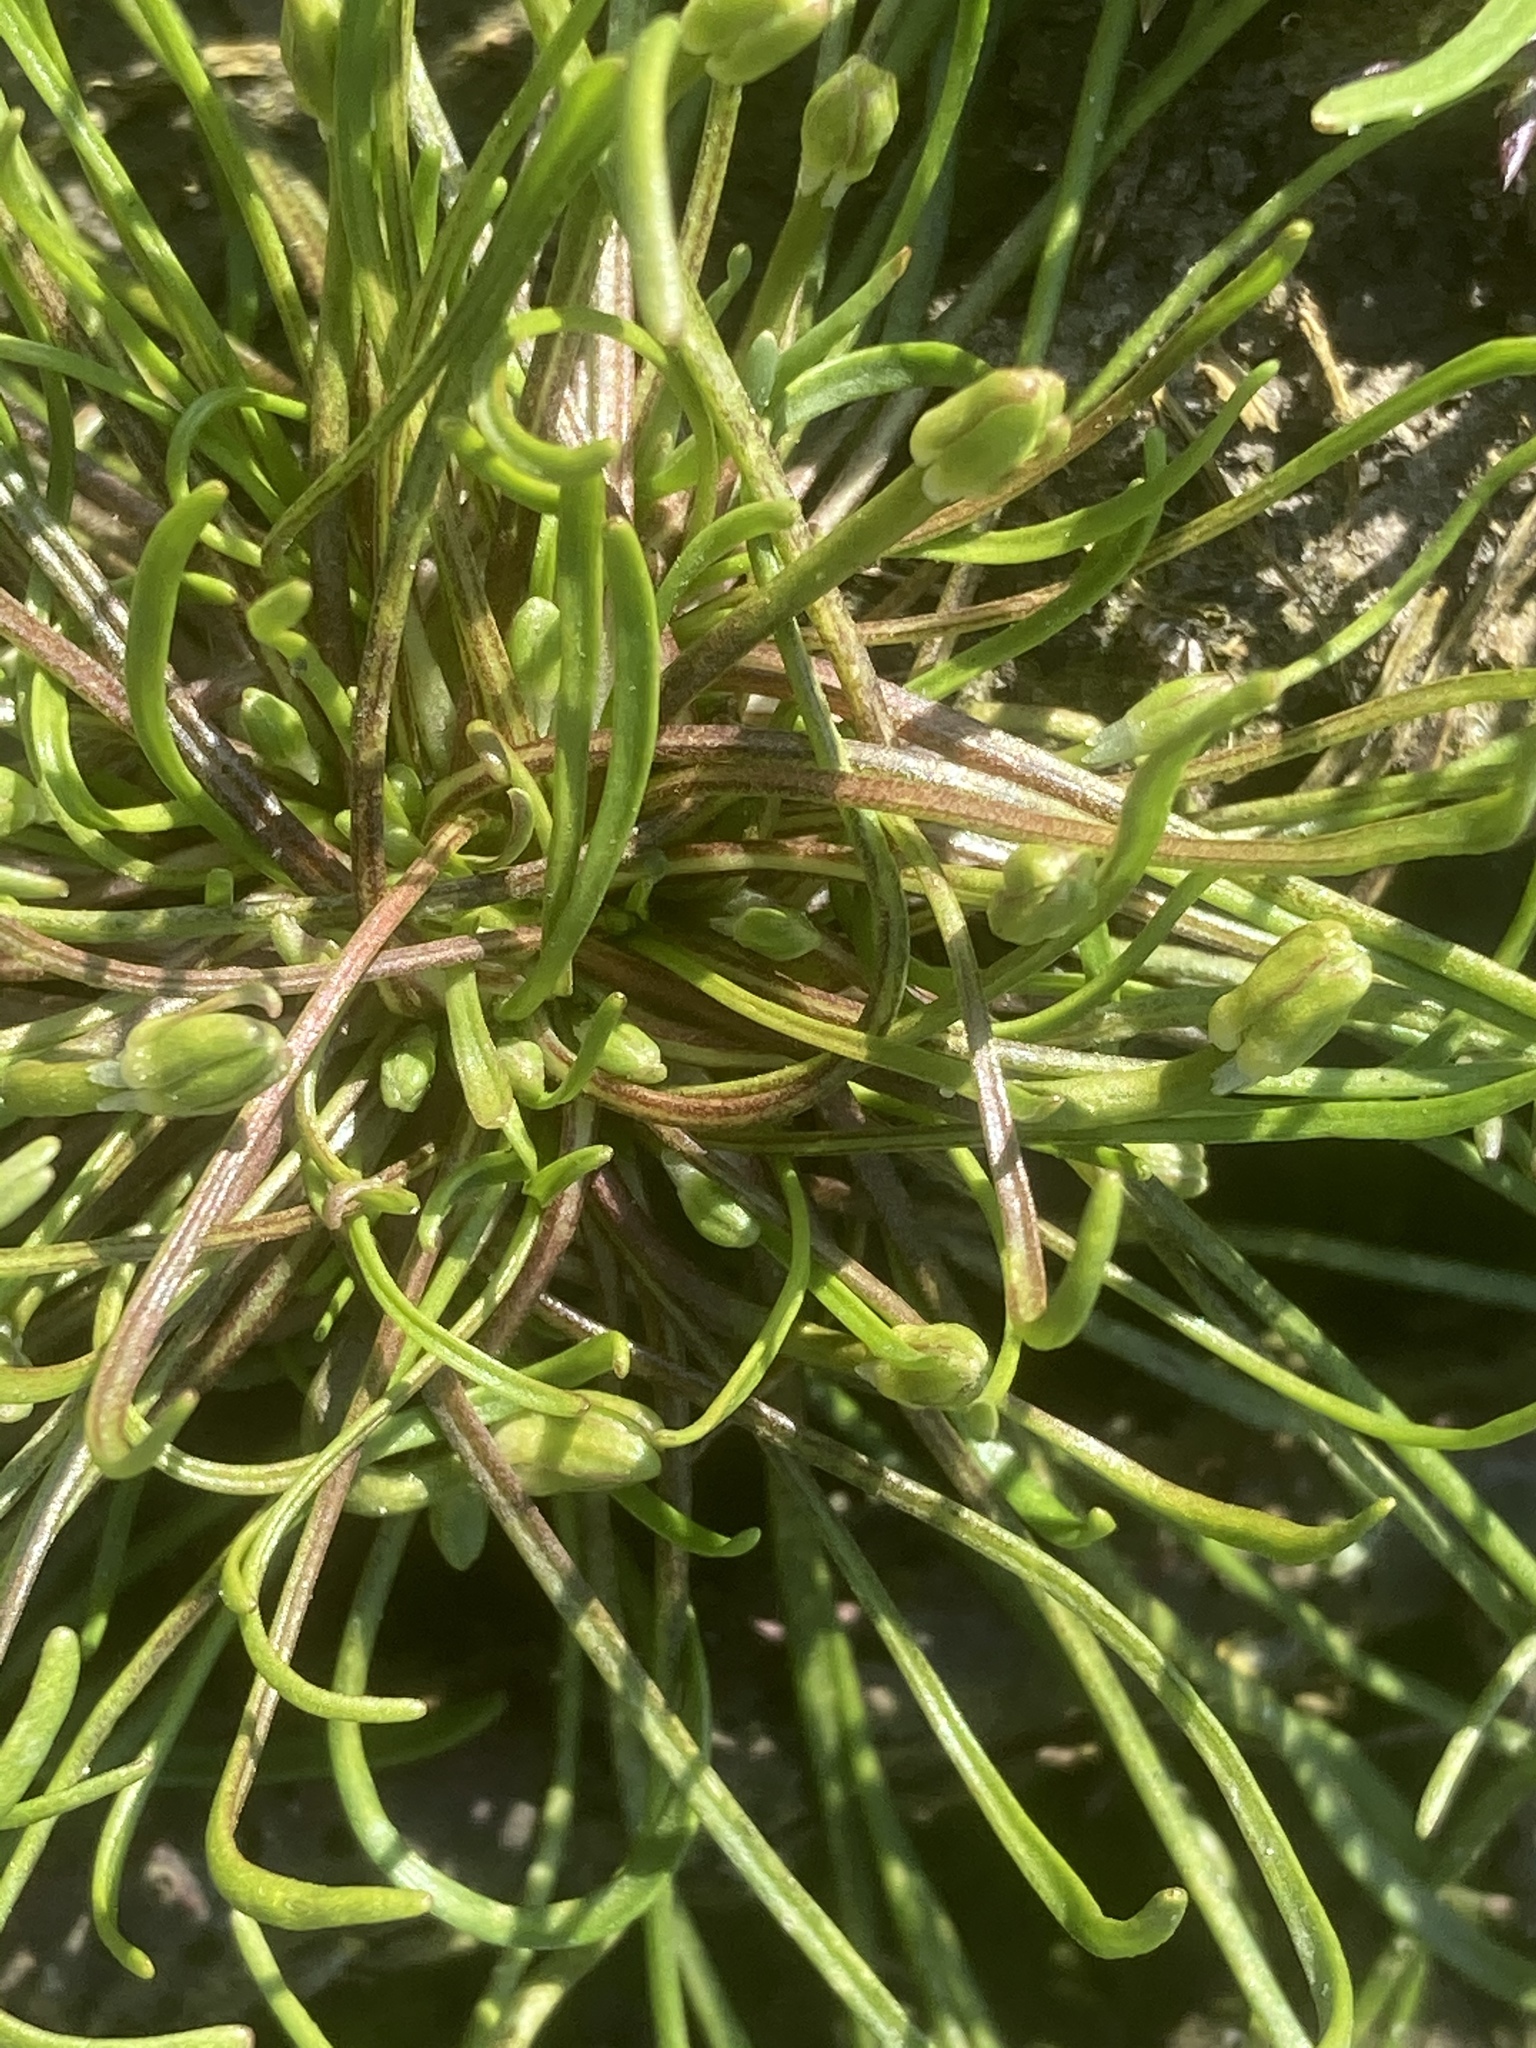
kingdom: Plantae
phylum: Tracheophyta
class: Magnoliopsida
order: Ranunculales
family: Ranunculaceae
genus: Myosurus
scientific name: Myosurus minimus
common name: Mousetail
